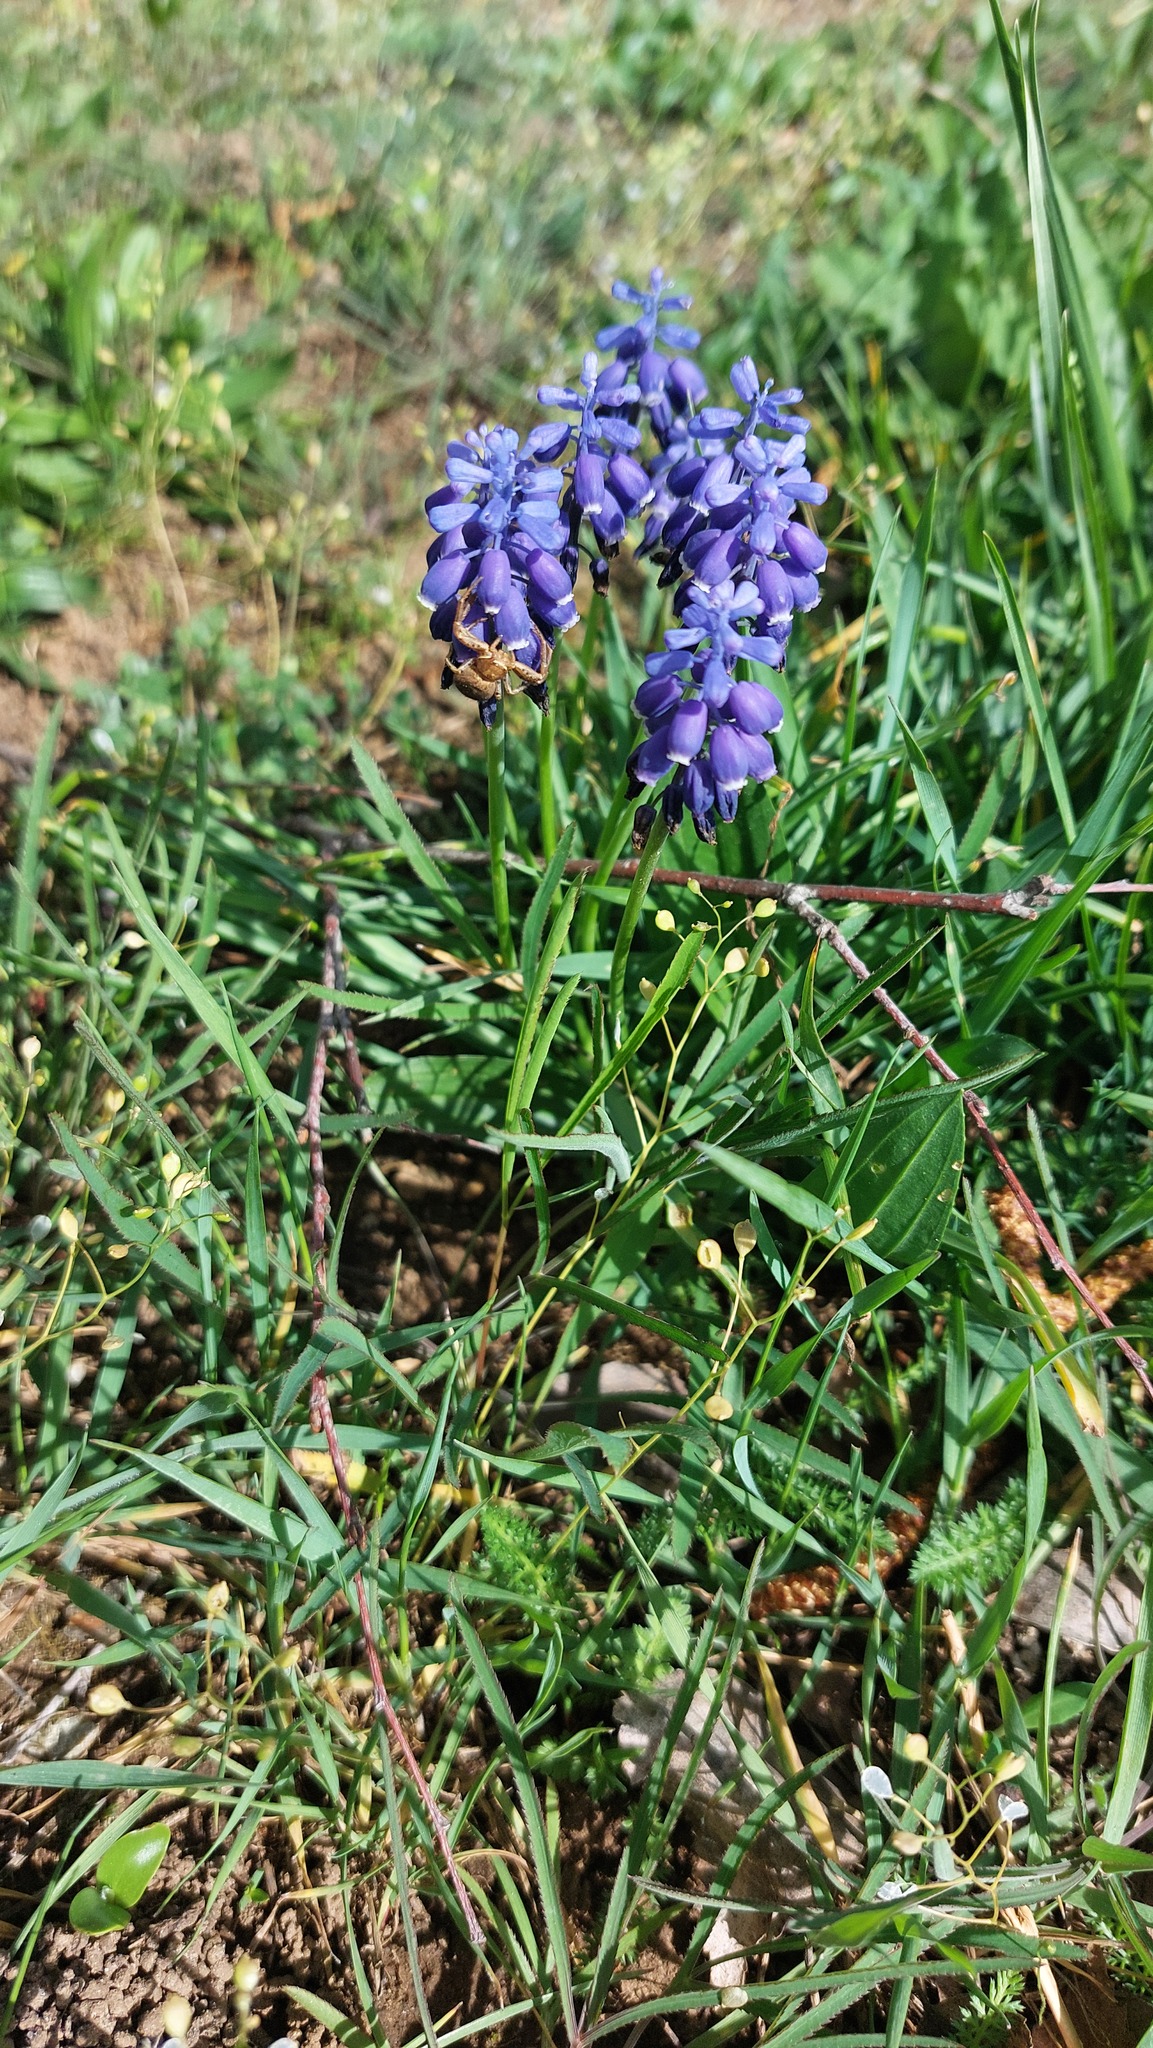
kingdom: Plantae
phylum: Tracheophyta
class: Liliopsida
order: Asparagales
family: Asparagaceae
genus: Muscari
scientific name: Muscari neglectum
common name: Grape-hyacinth
